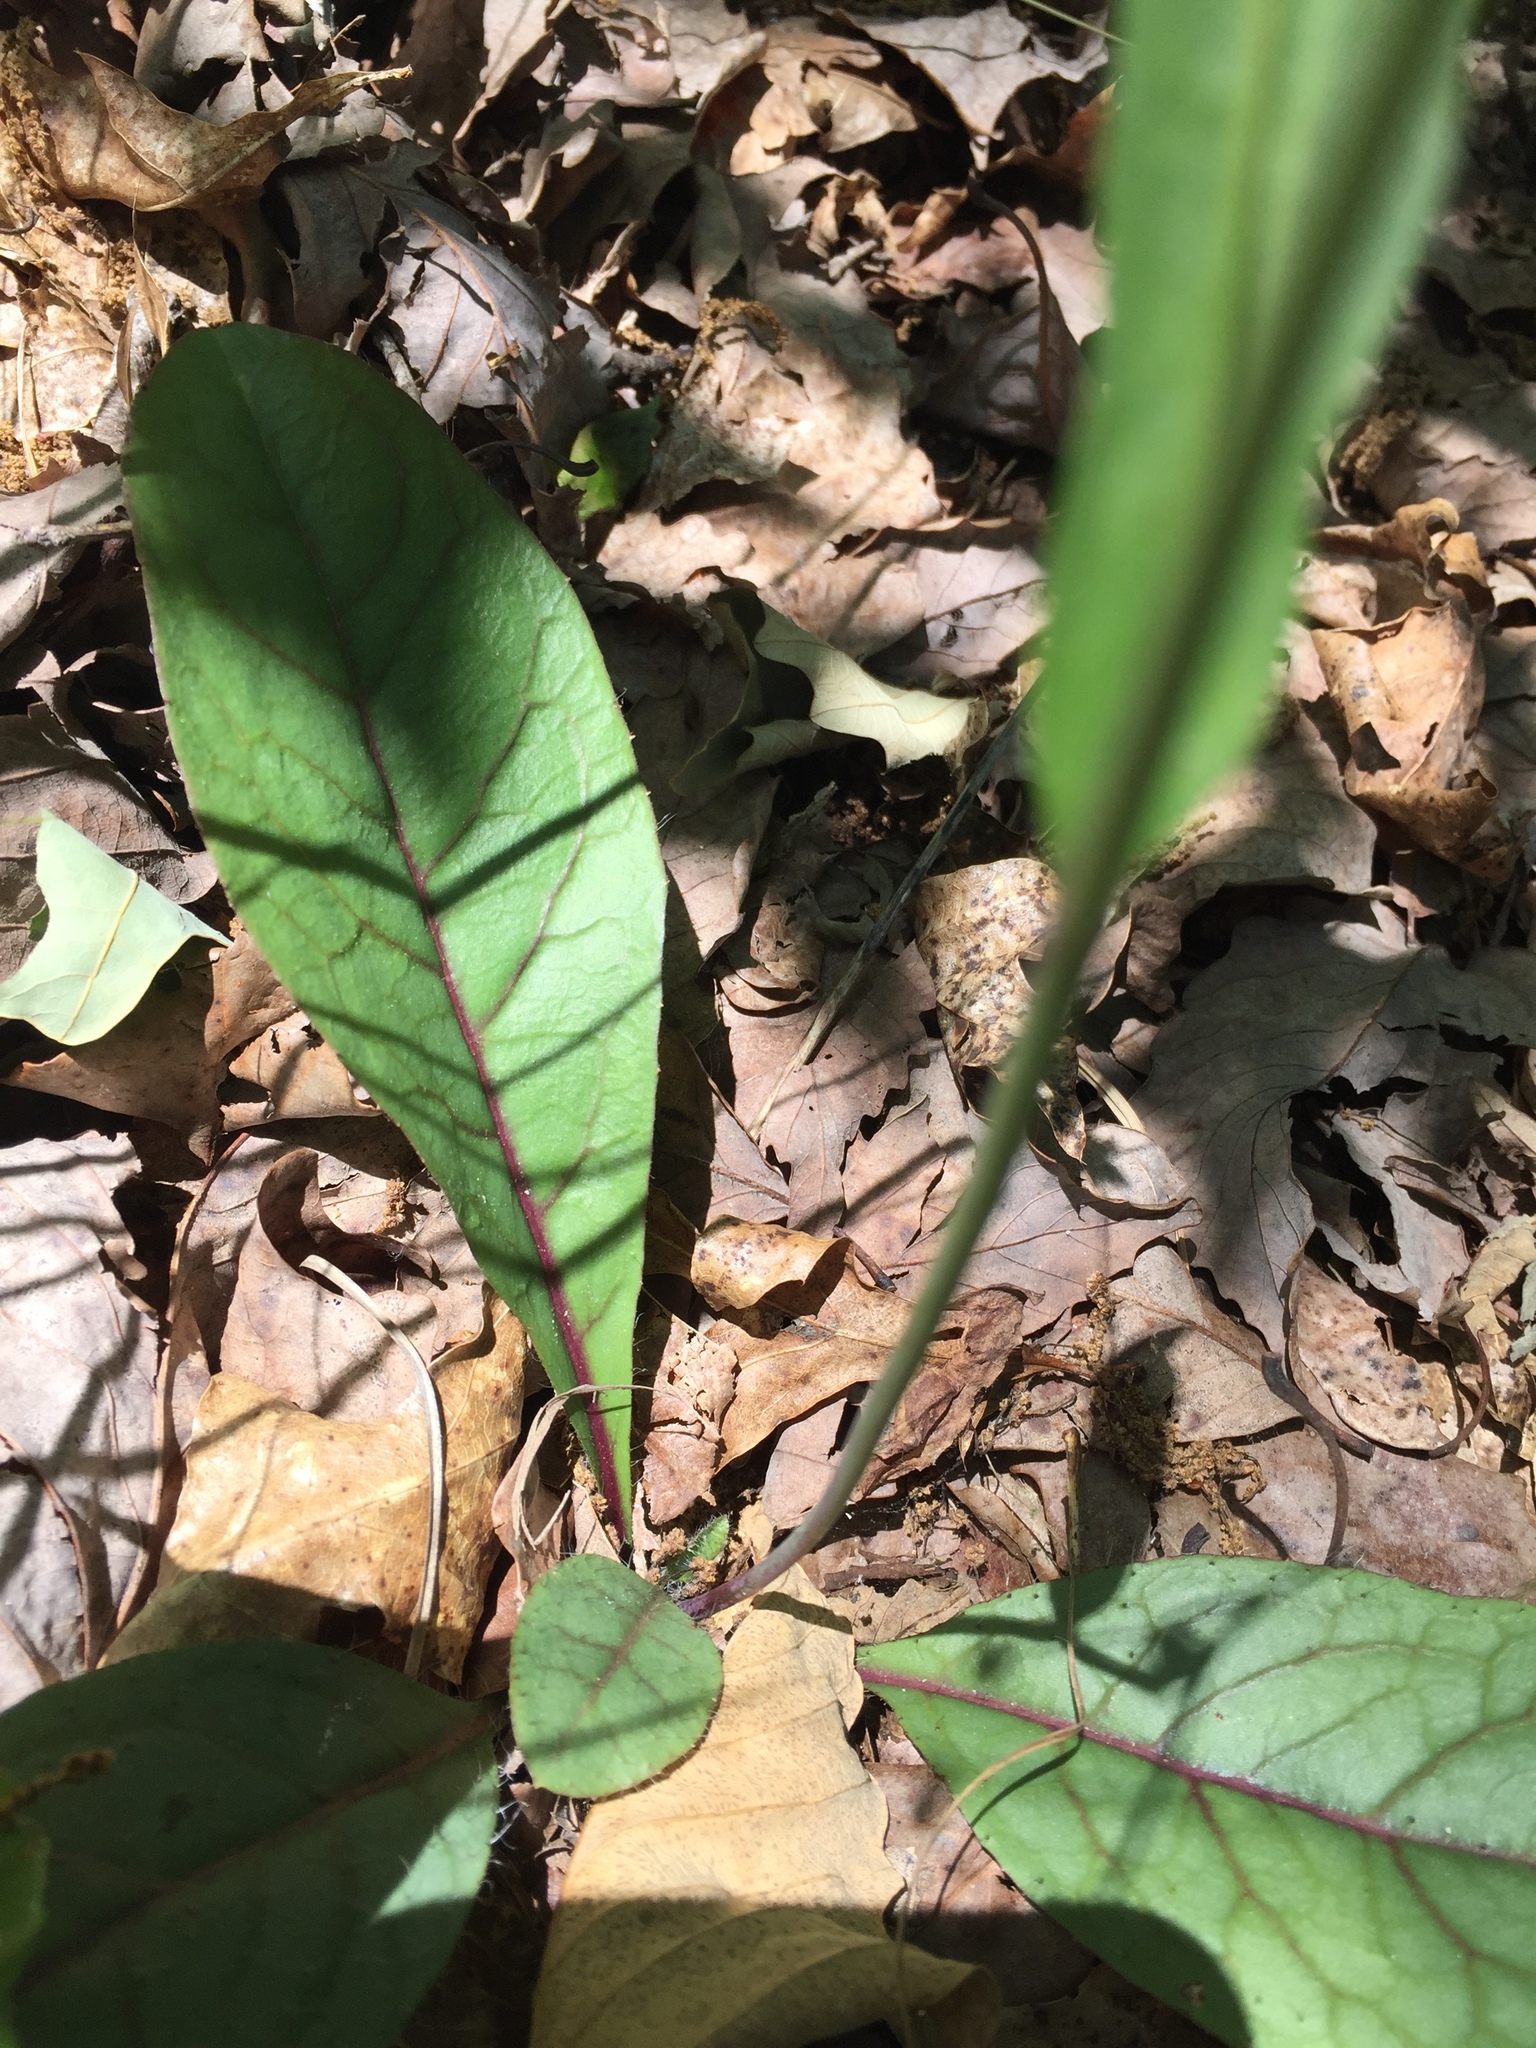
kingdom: Plantae
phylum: Tracheophyta
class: Magnoliopsida
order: Asterales
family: Asteraceae
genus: Hieracium
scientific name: Hieracium venosum
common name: Rattlesnake hawkweed
